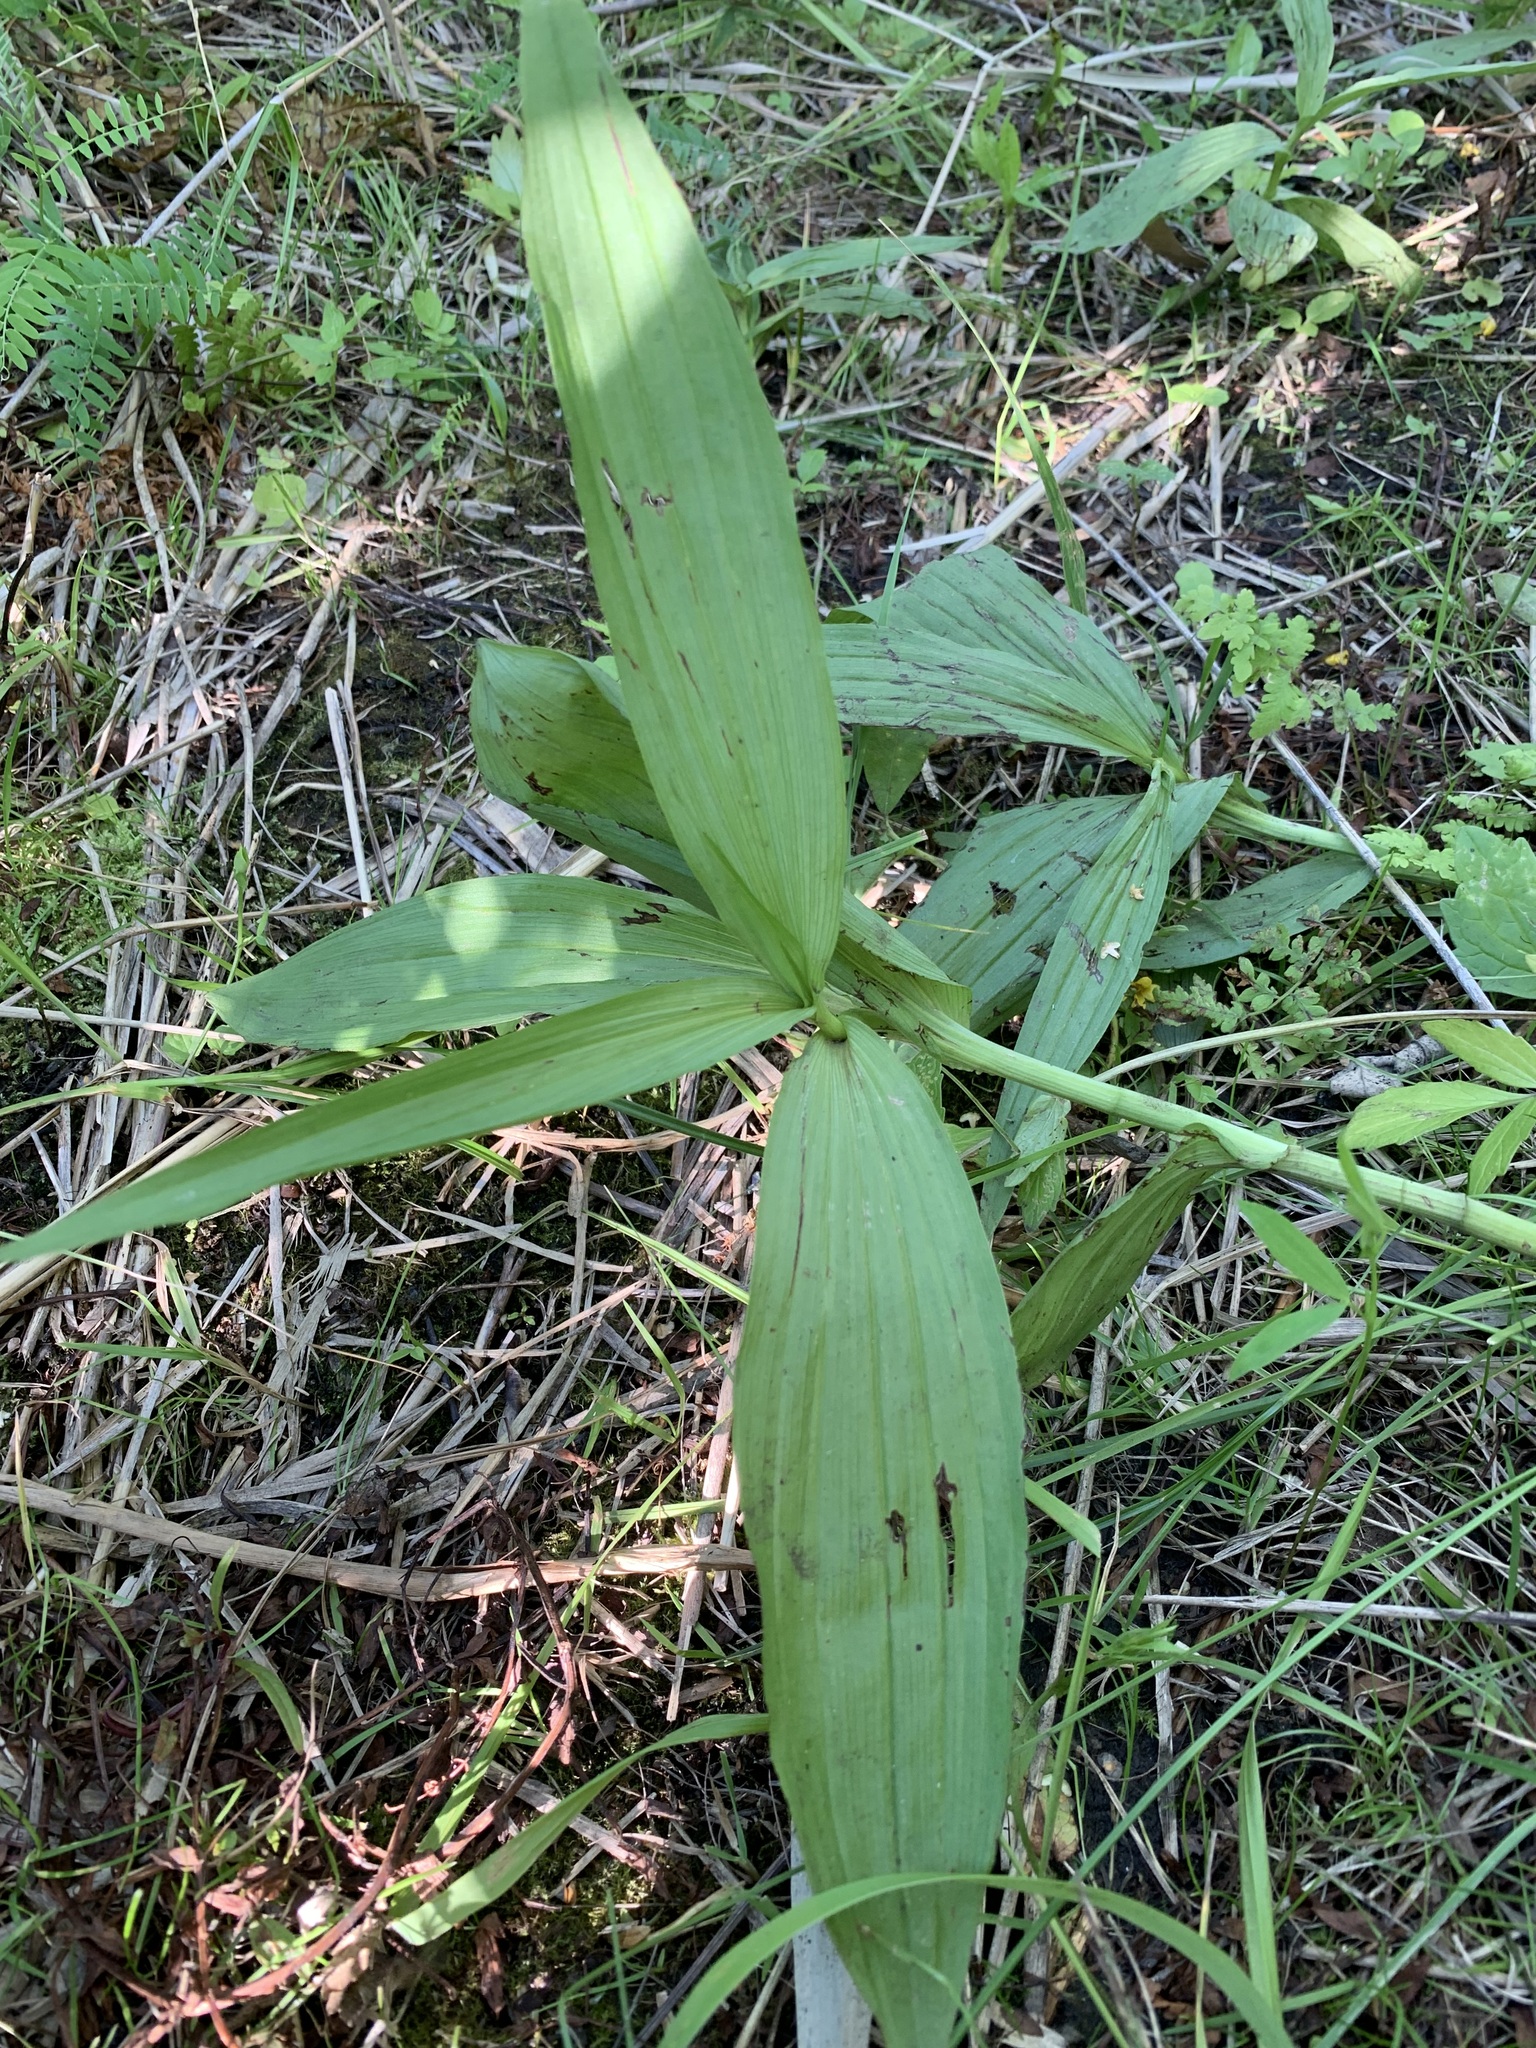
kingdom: Plantae
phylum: Tracheophyta
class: Liliopsida
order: Liliales
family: Melanthiaceae
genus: Veratrum
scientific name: Veratrum lobelianum
